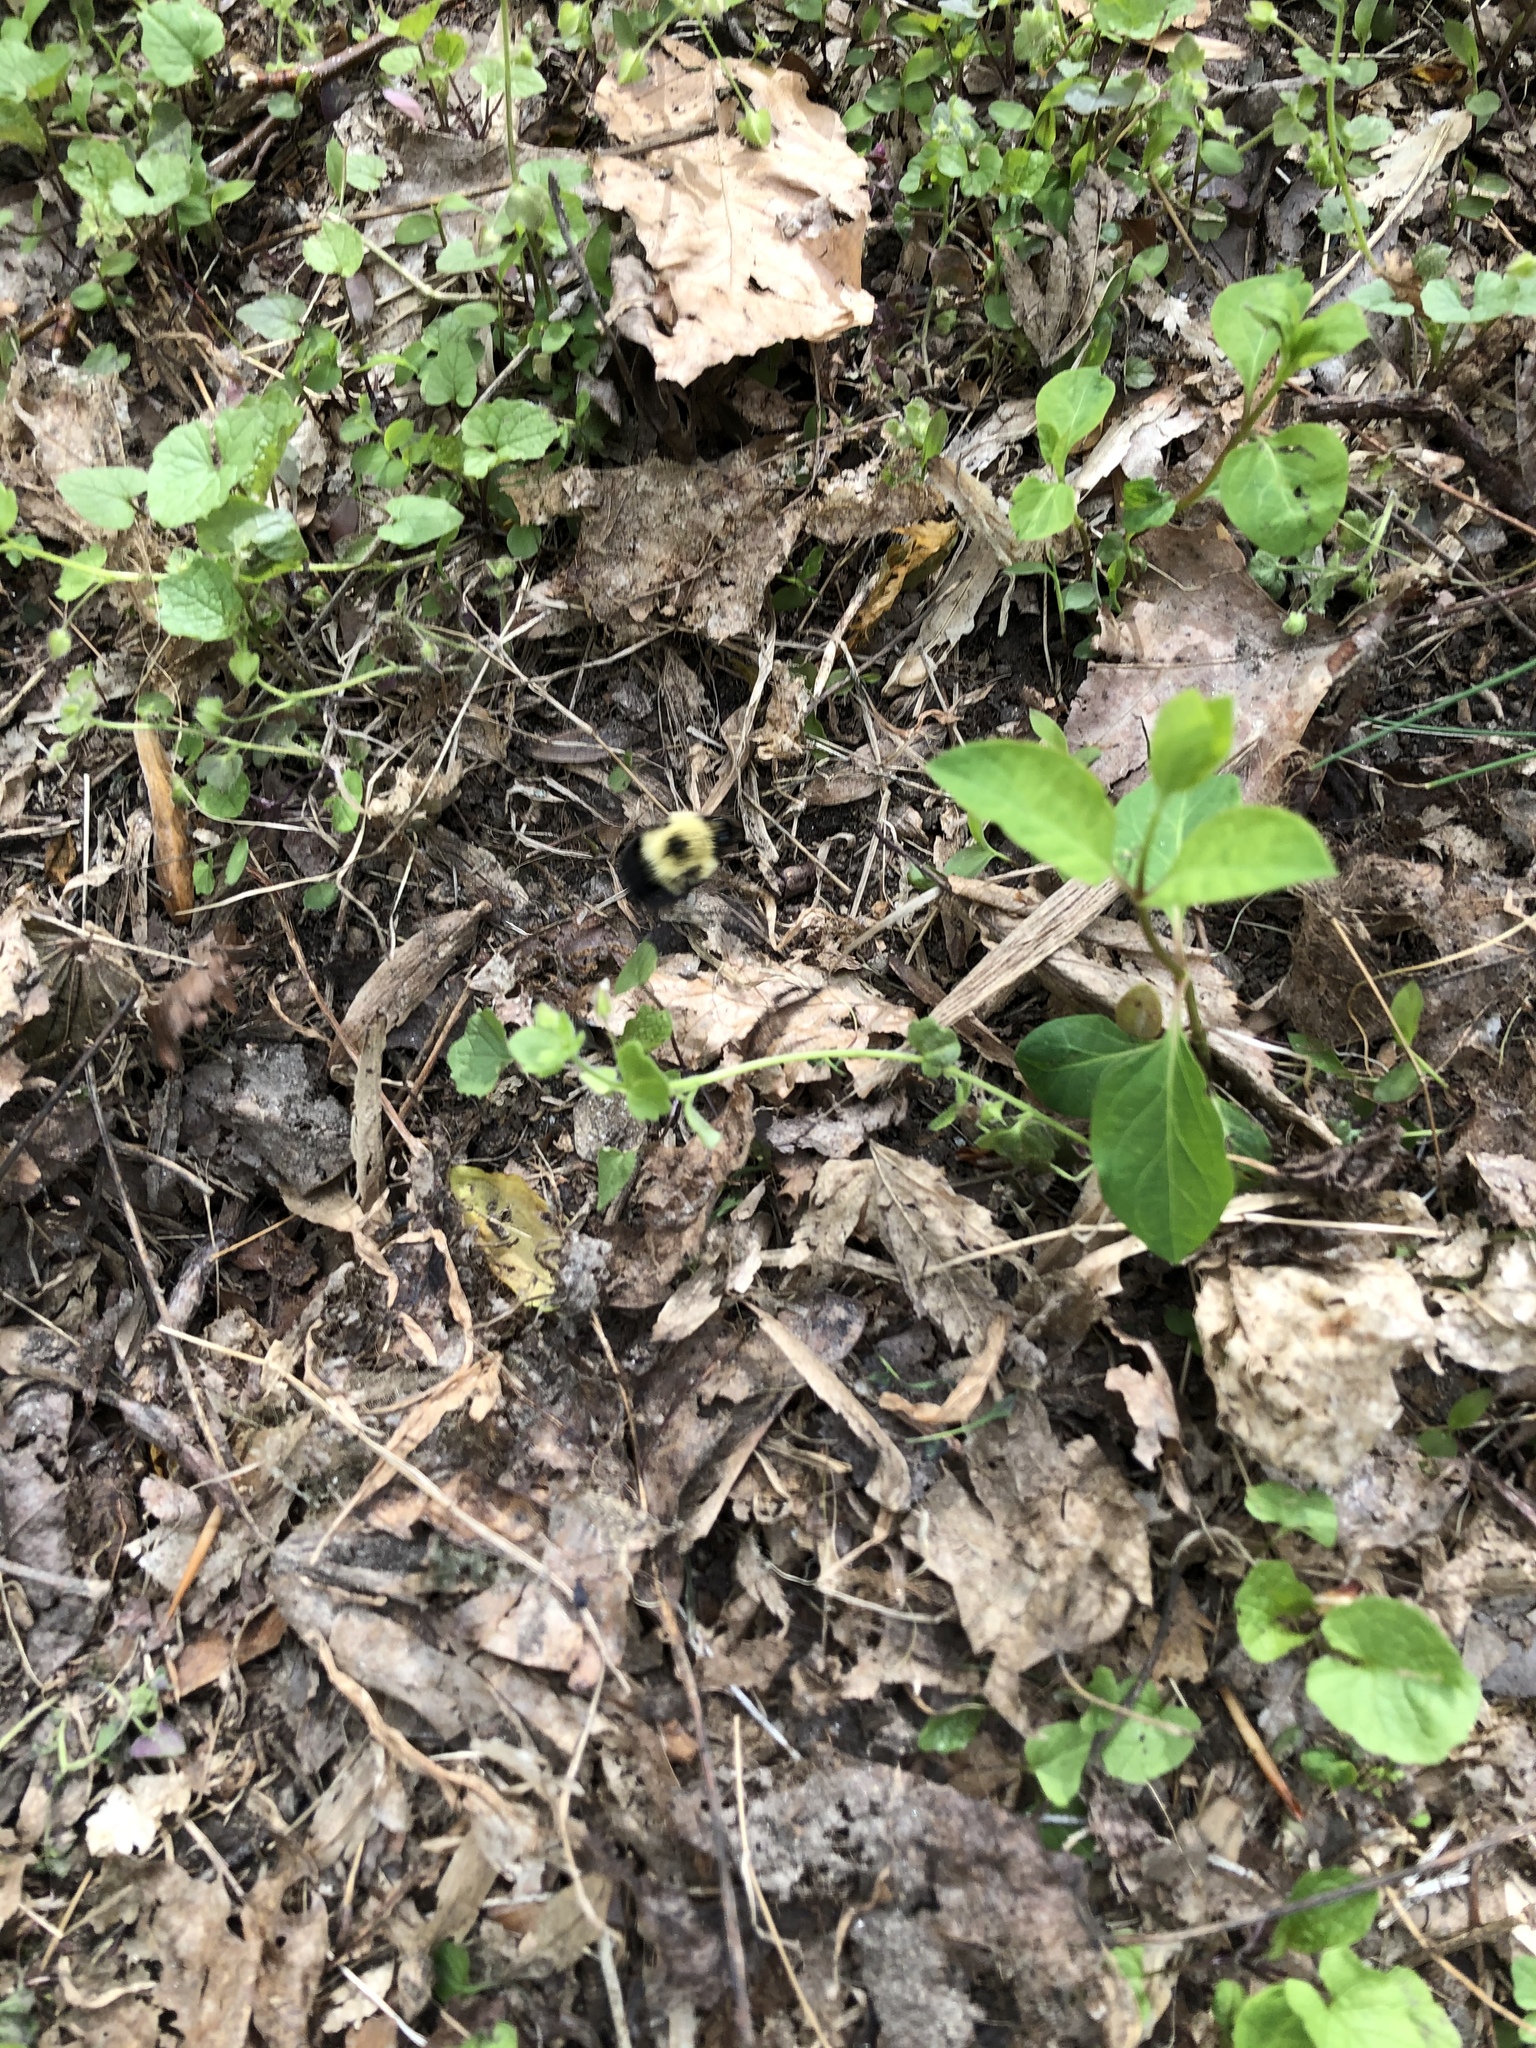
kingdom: Animalia
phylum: Arthropoda
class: Insecta
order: Hymenoptera
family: Apidae
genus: Bombus
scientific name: Bombus bimaculatus
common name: Two-spotted bumble bee
